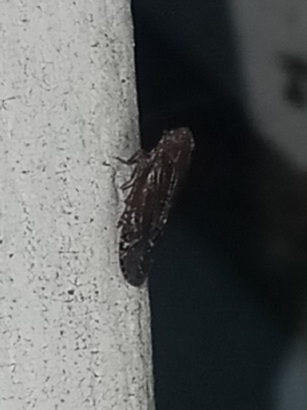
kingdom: Animalia
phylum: Arthropoda
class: Insecta
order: Hemiptera
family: Achilidae
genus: Catonia
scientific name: Catonia bicinctura
